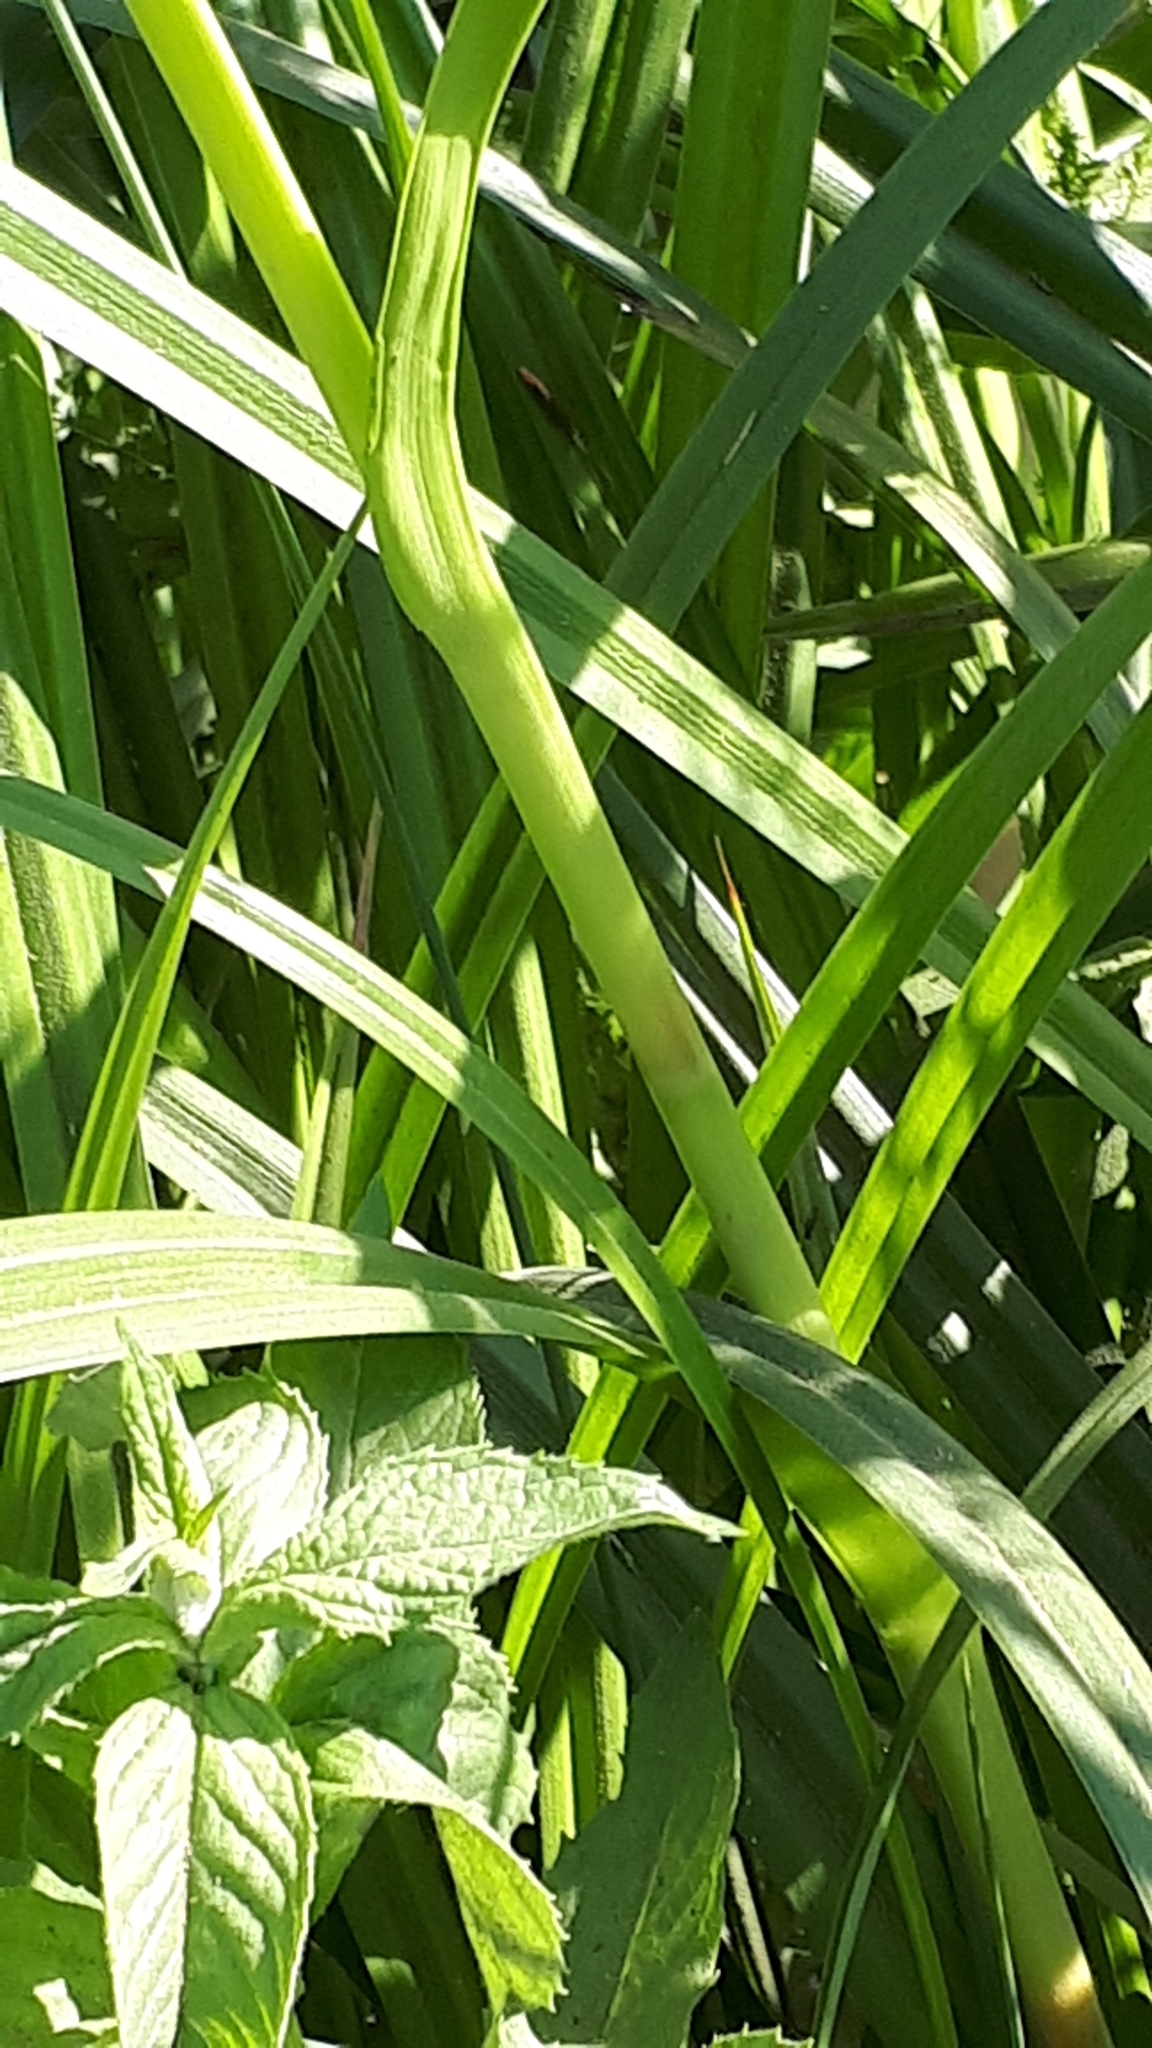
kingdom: Plantae
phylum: Tracheophyta
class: Liliopsida
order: Poales
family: Cyperaceae
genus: Scirpus
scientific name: Scirpus sylvaticus
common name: Wood club-rush
